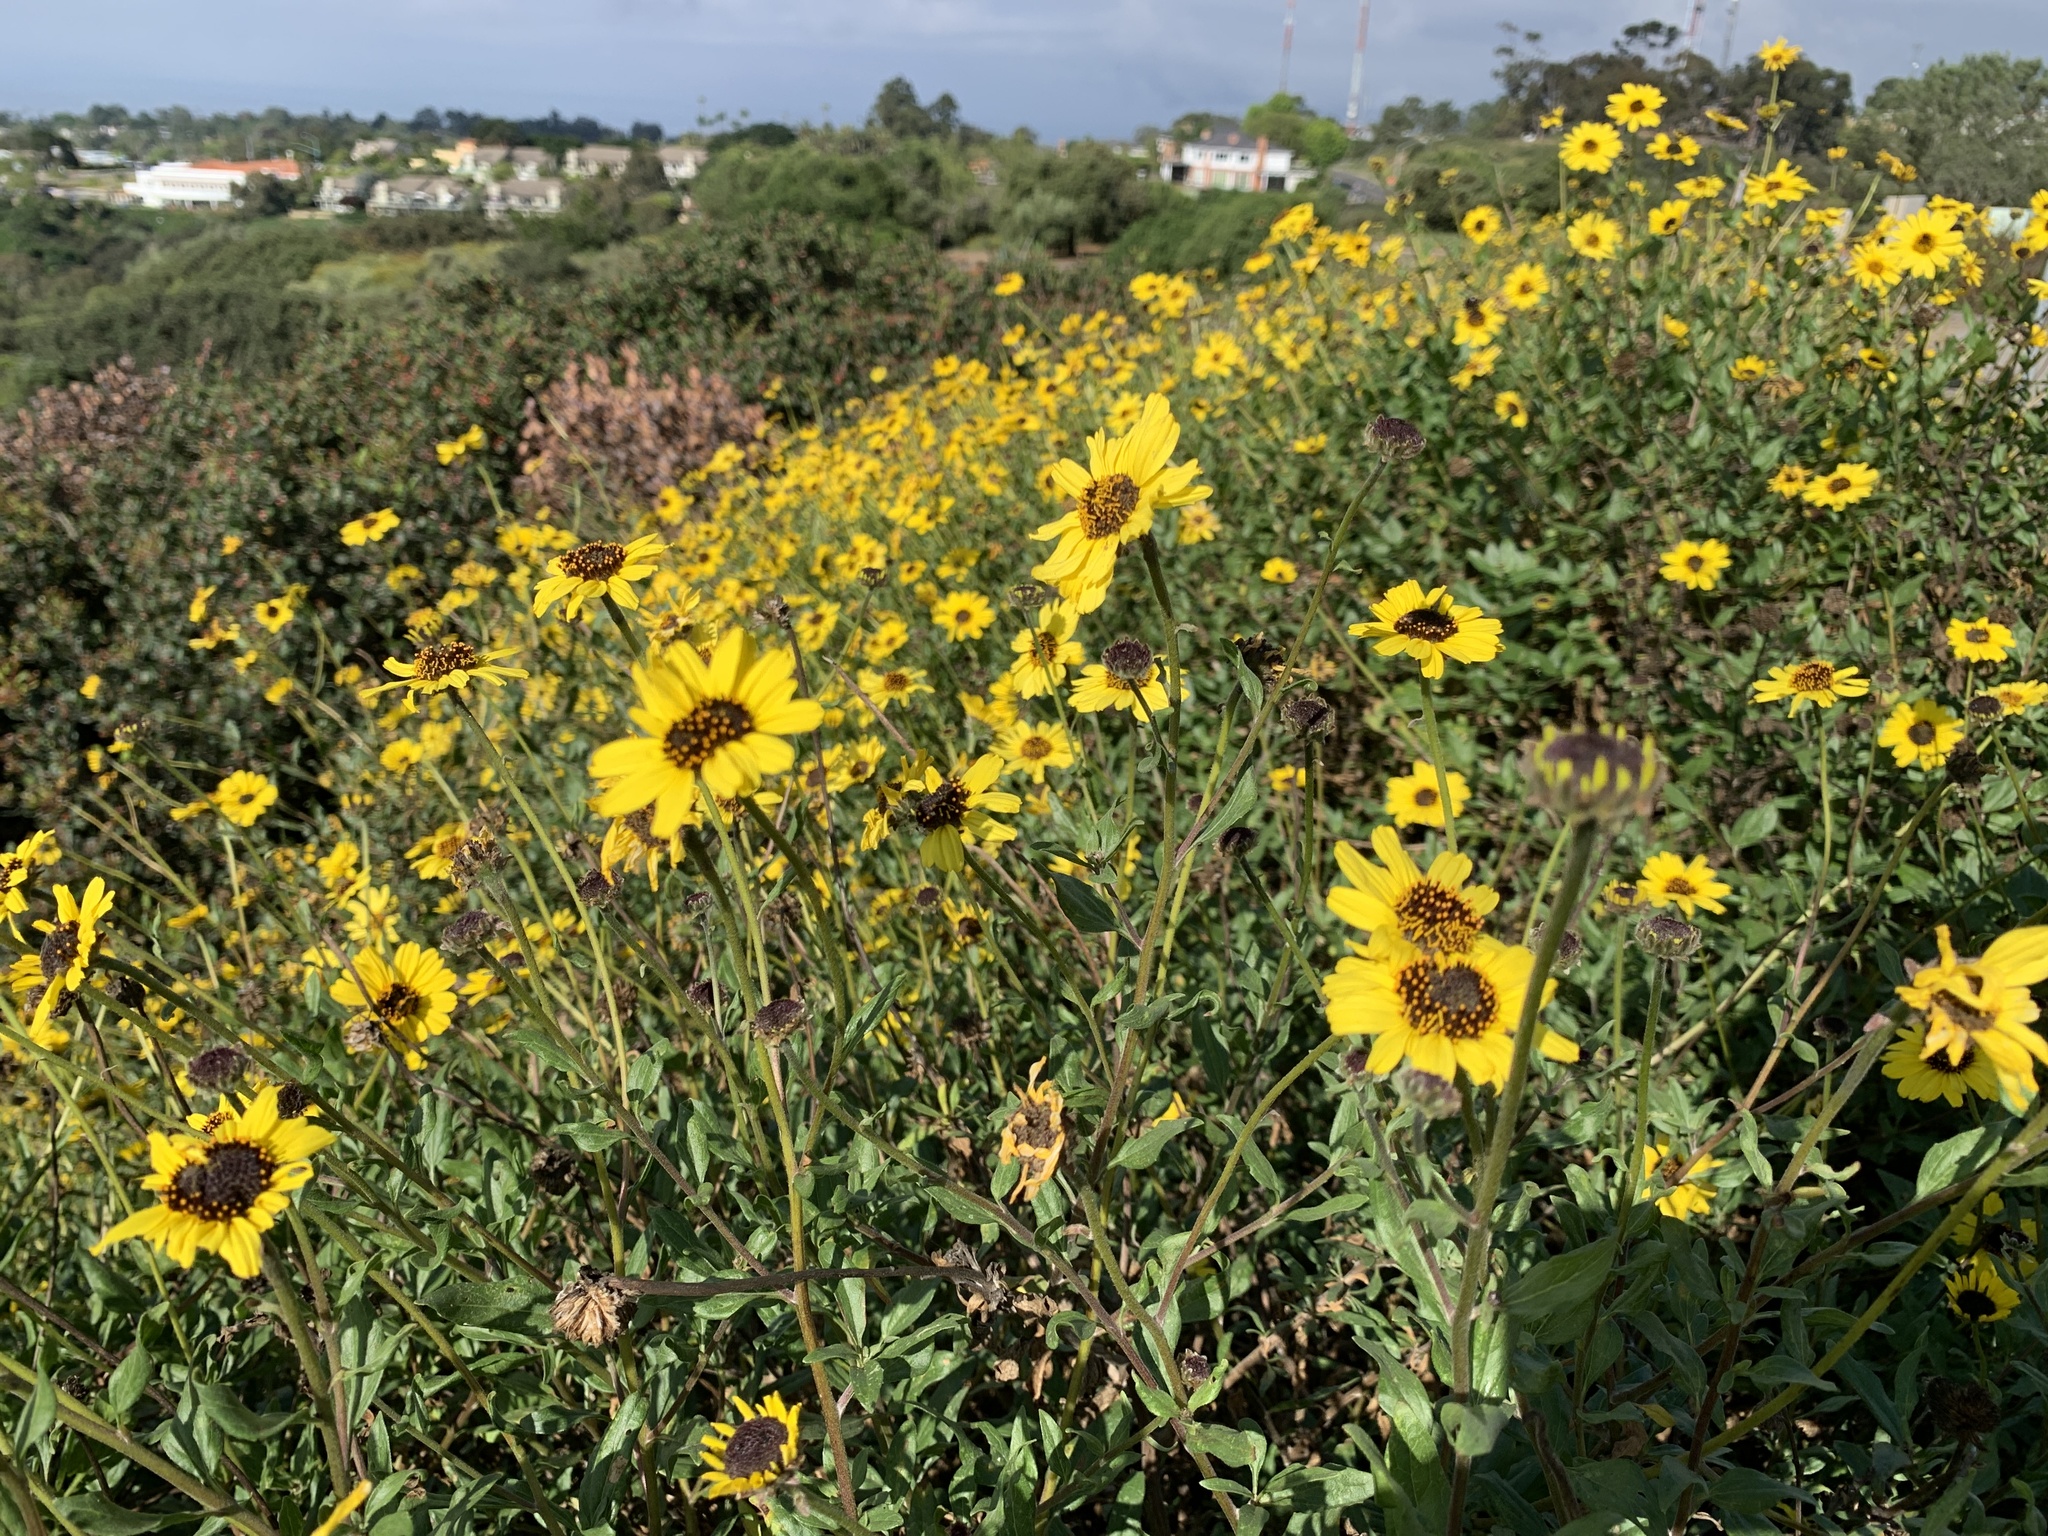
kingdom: Plantae
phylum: Tracheophyta
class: Magnoliopsida
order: Asterales
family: Asteraceae
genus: Encelia
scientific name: Encelia californica
